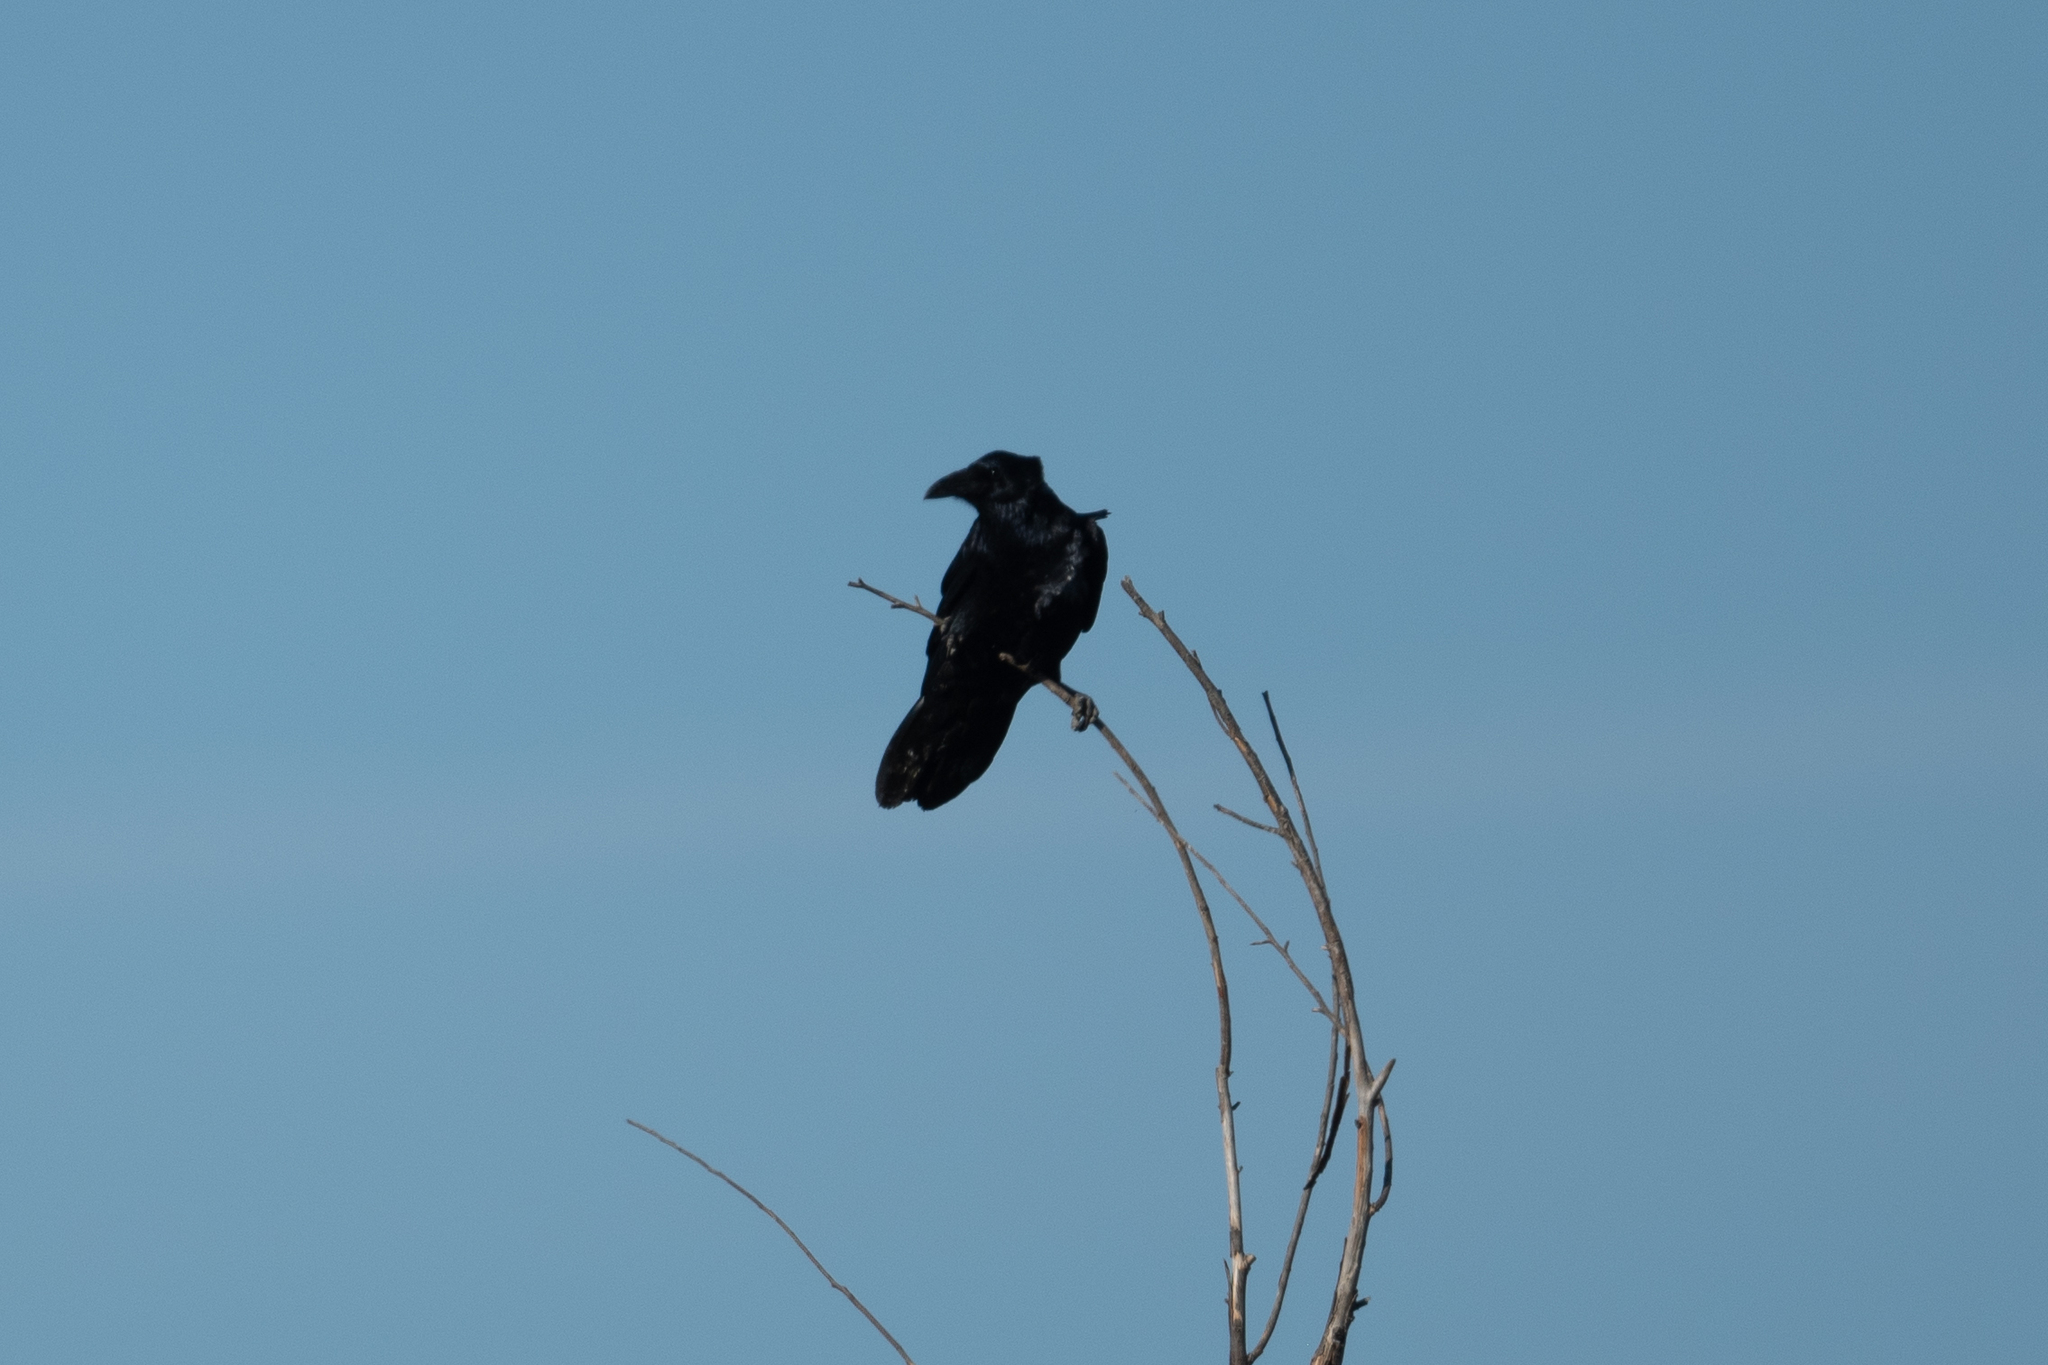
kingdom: Animalia
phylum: Chordata
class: Aves
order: Passeriformes
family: Corvidae
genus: Corvus
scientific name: Corvus corax
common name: Common raven
